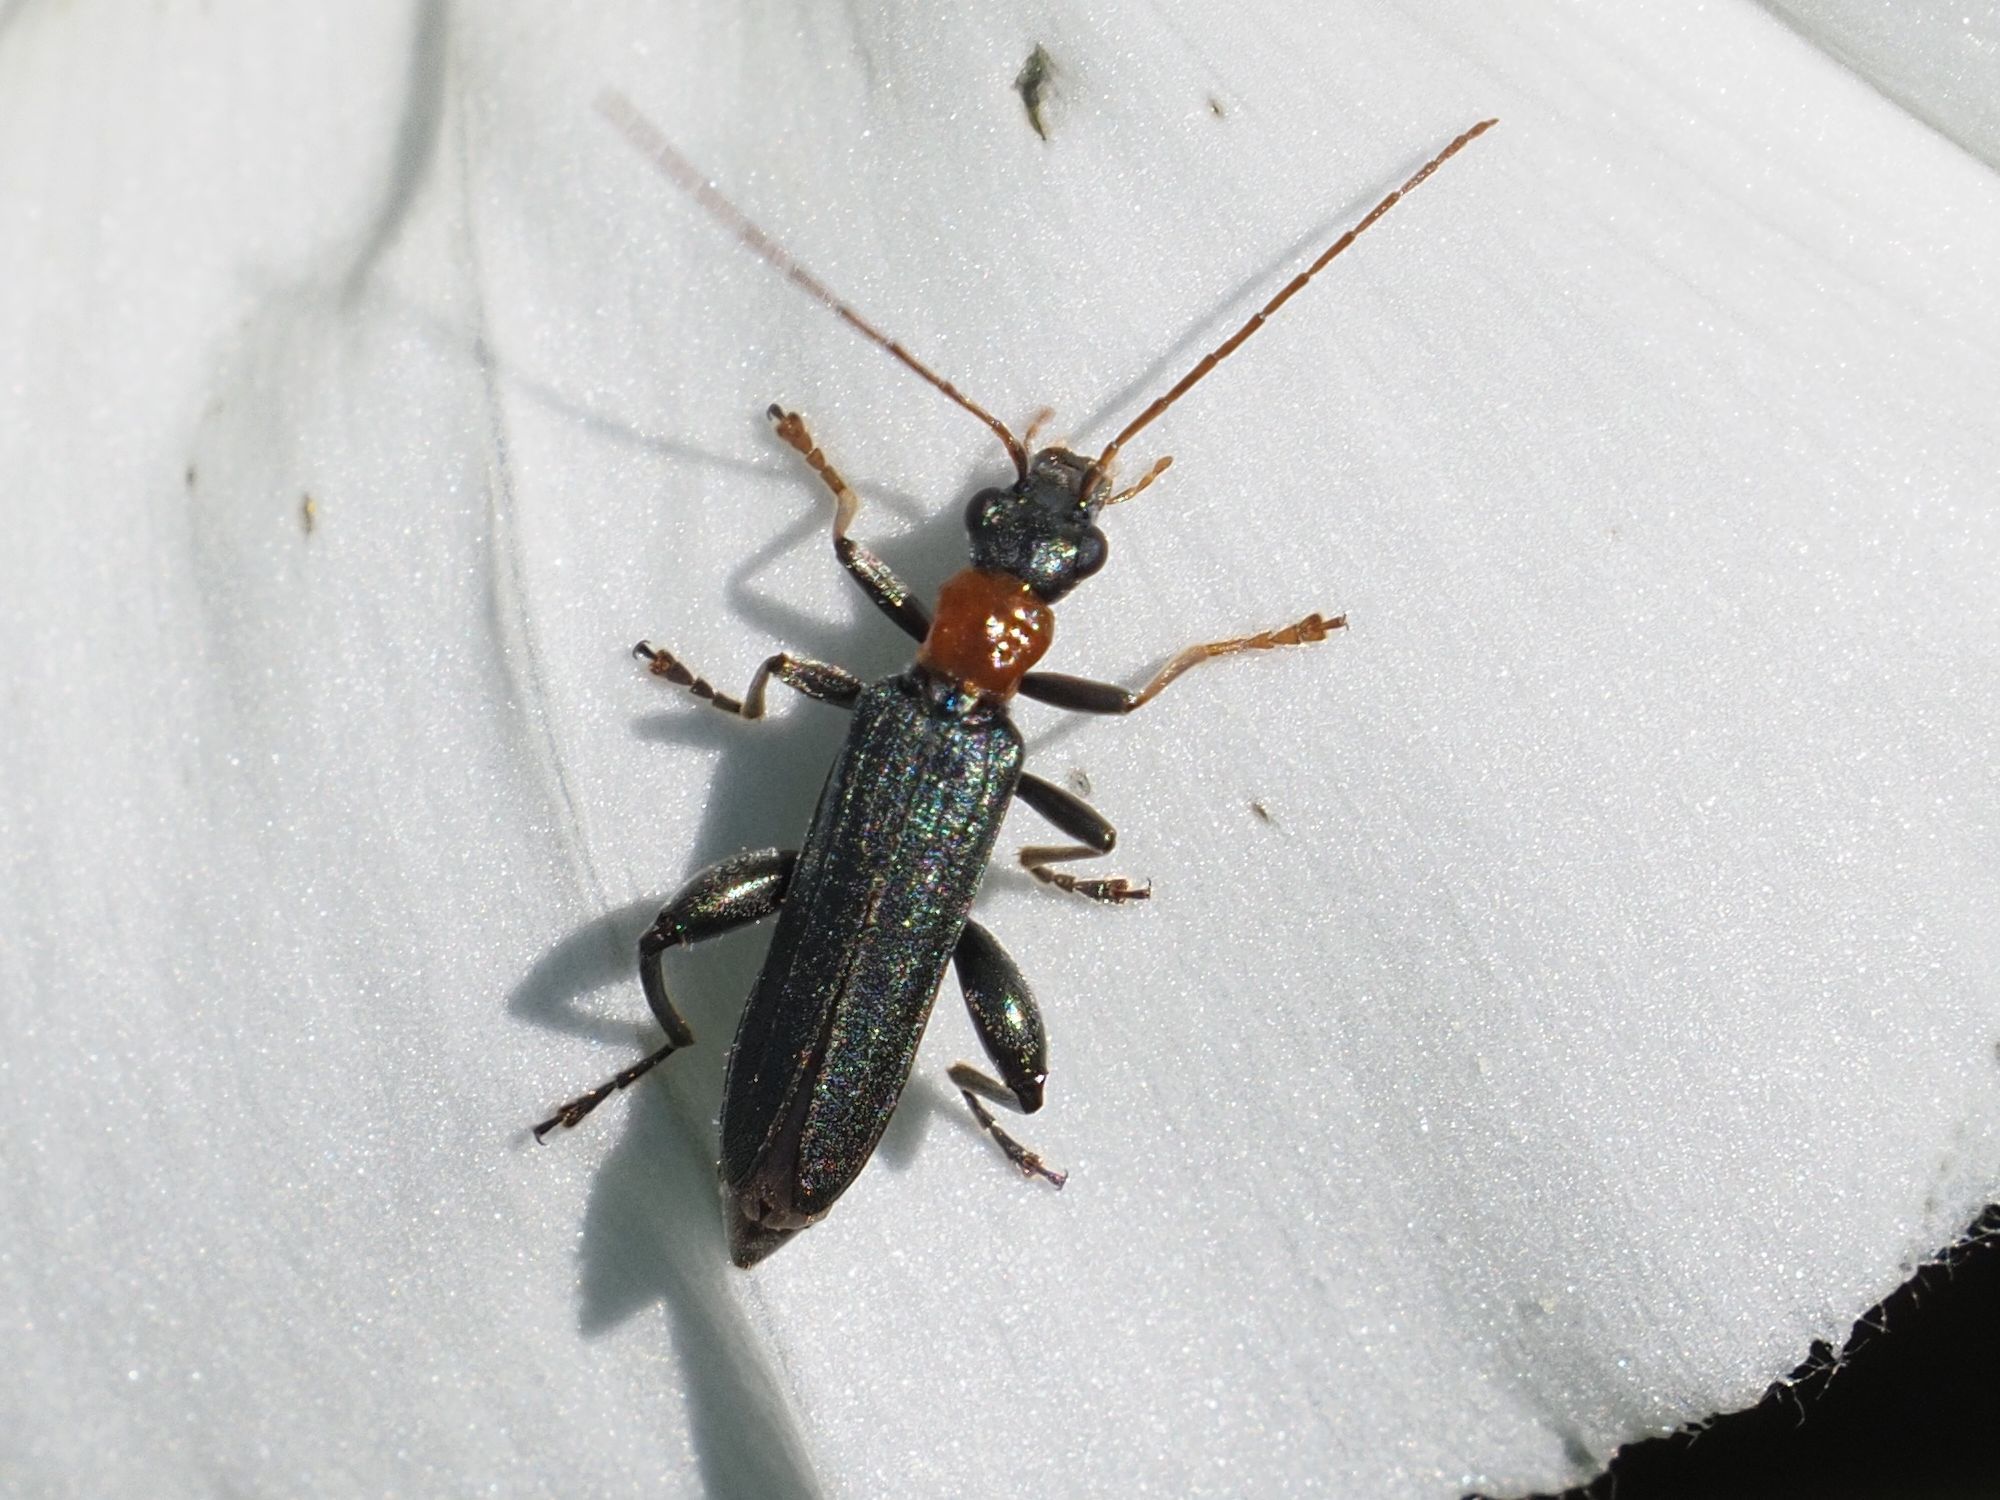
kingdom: Animalia
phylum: Arthropoda
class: Insecta
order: Coleoptera
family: Oedemeridae
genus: Oedemera
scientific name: Oedemera croceicollis
